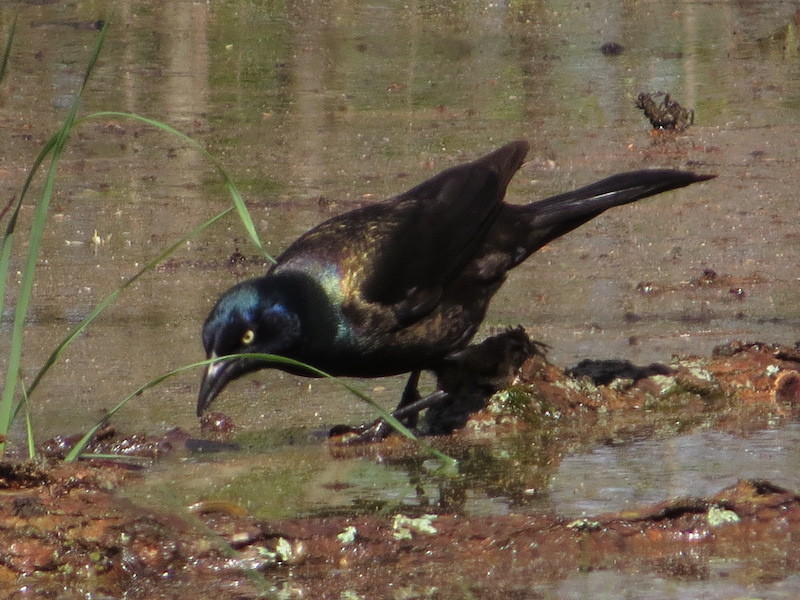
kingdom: Animalia
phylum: Chordata
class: Aves
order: Passeriformes
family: Icteridae
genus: Quiscalus
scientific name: Quiscalus quiscula
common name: Common grackle
